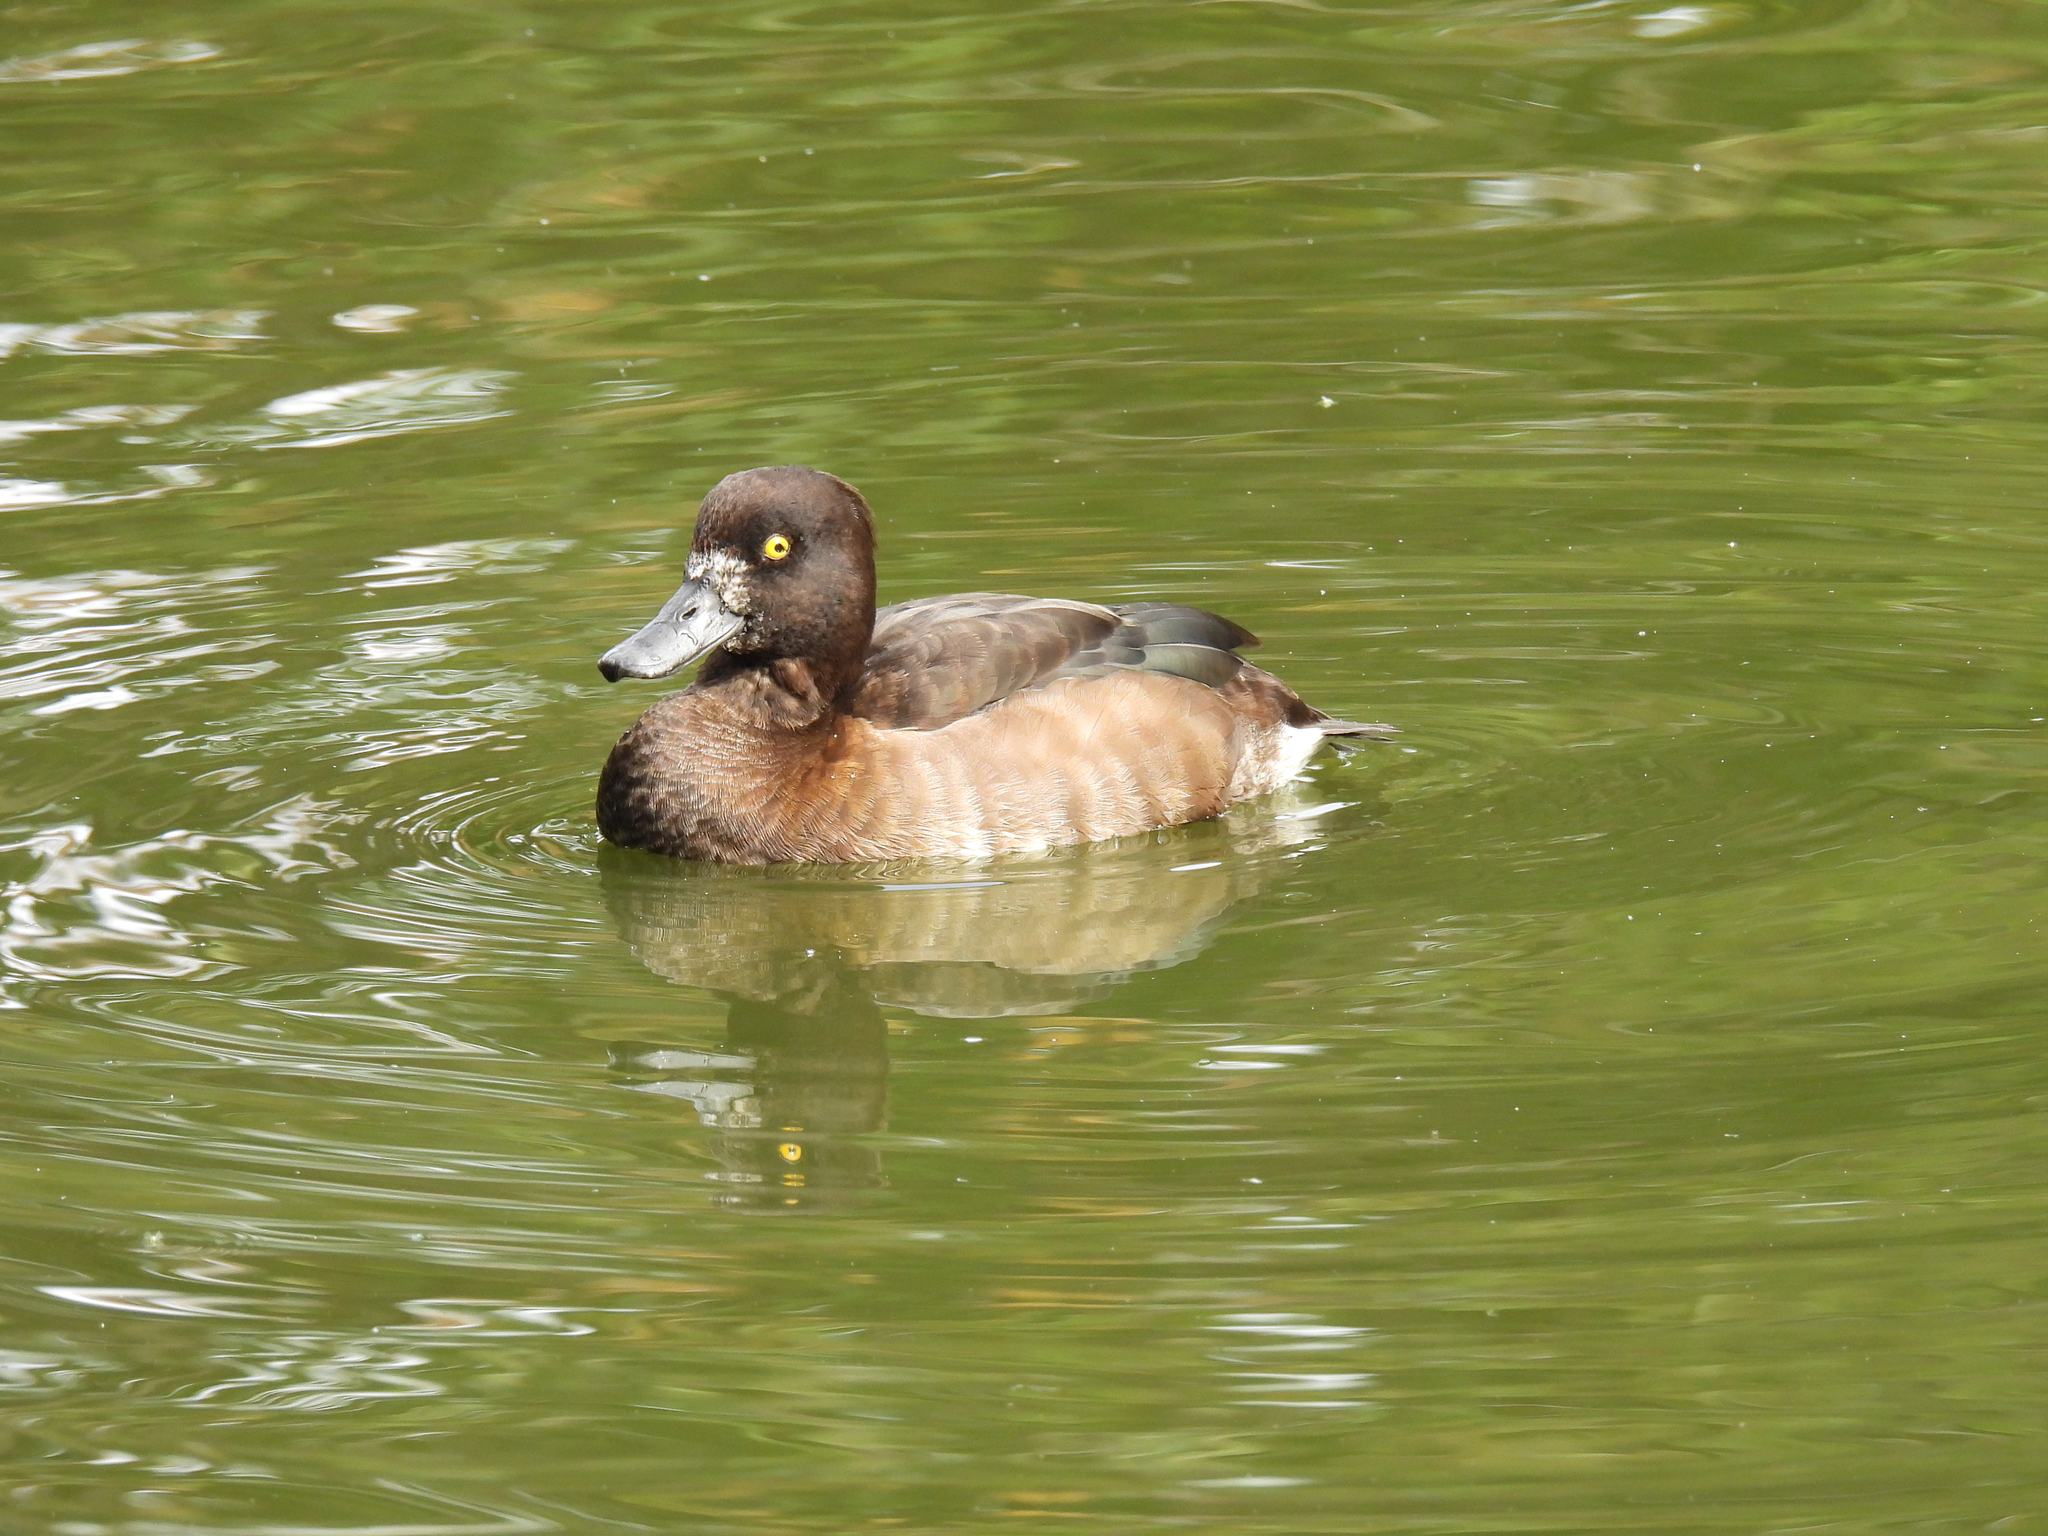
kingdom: Animalia
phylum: Chordata
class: Aves
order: Anseriformes
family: Anatidae
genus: Aythya
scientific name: Aythya fuligula
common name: Tufted duck
